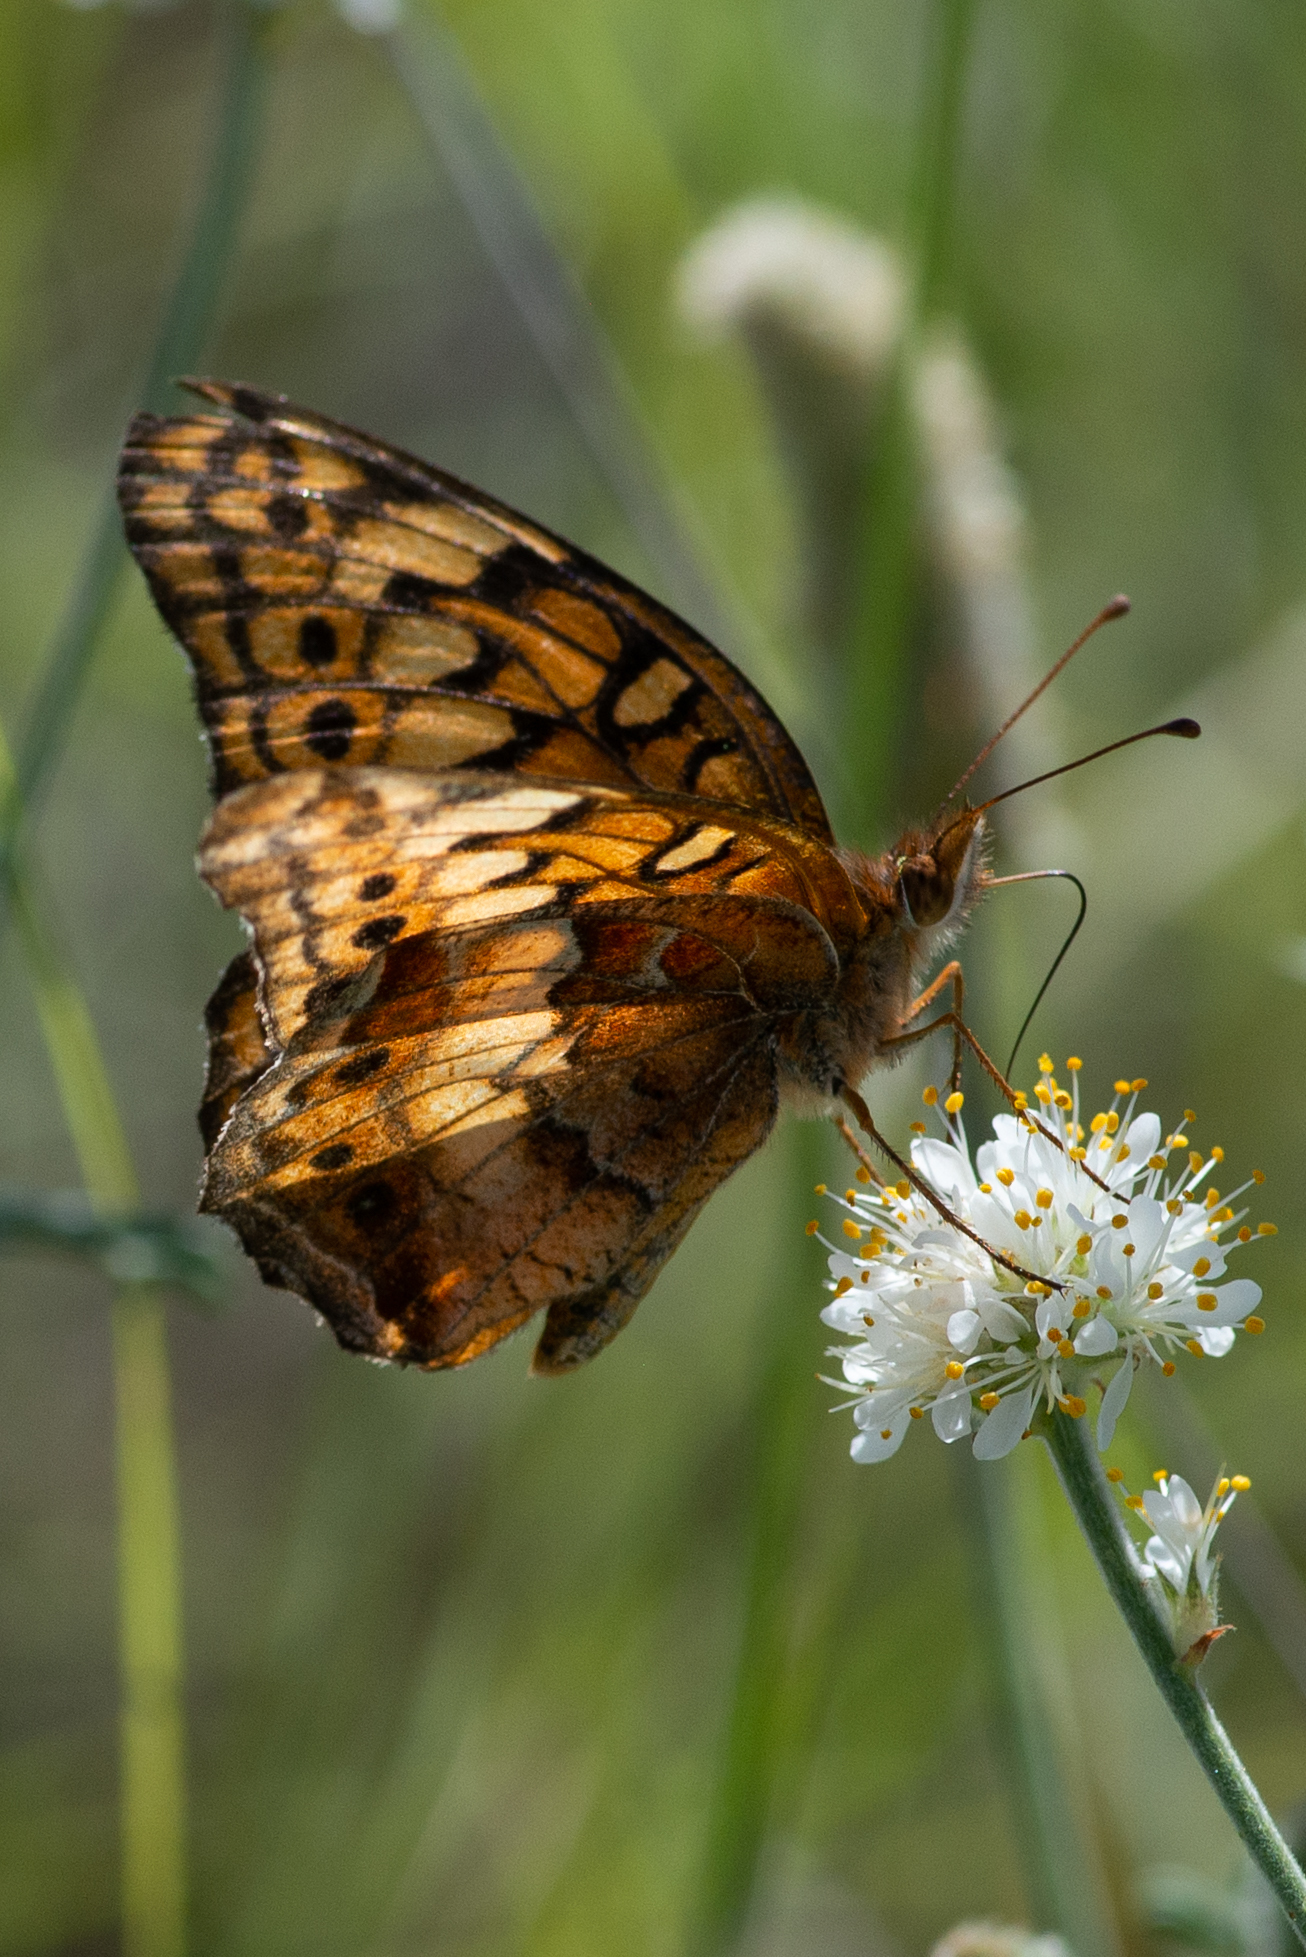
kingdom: Animalia
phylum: Arthropoda
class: Insecta
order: Lepidoptera
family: Nymphalidae
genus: Euptoieta
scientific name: Euptoieta claudia
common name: Variegated fritillary
